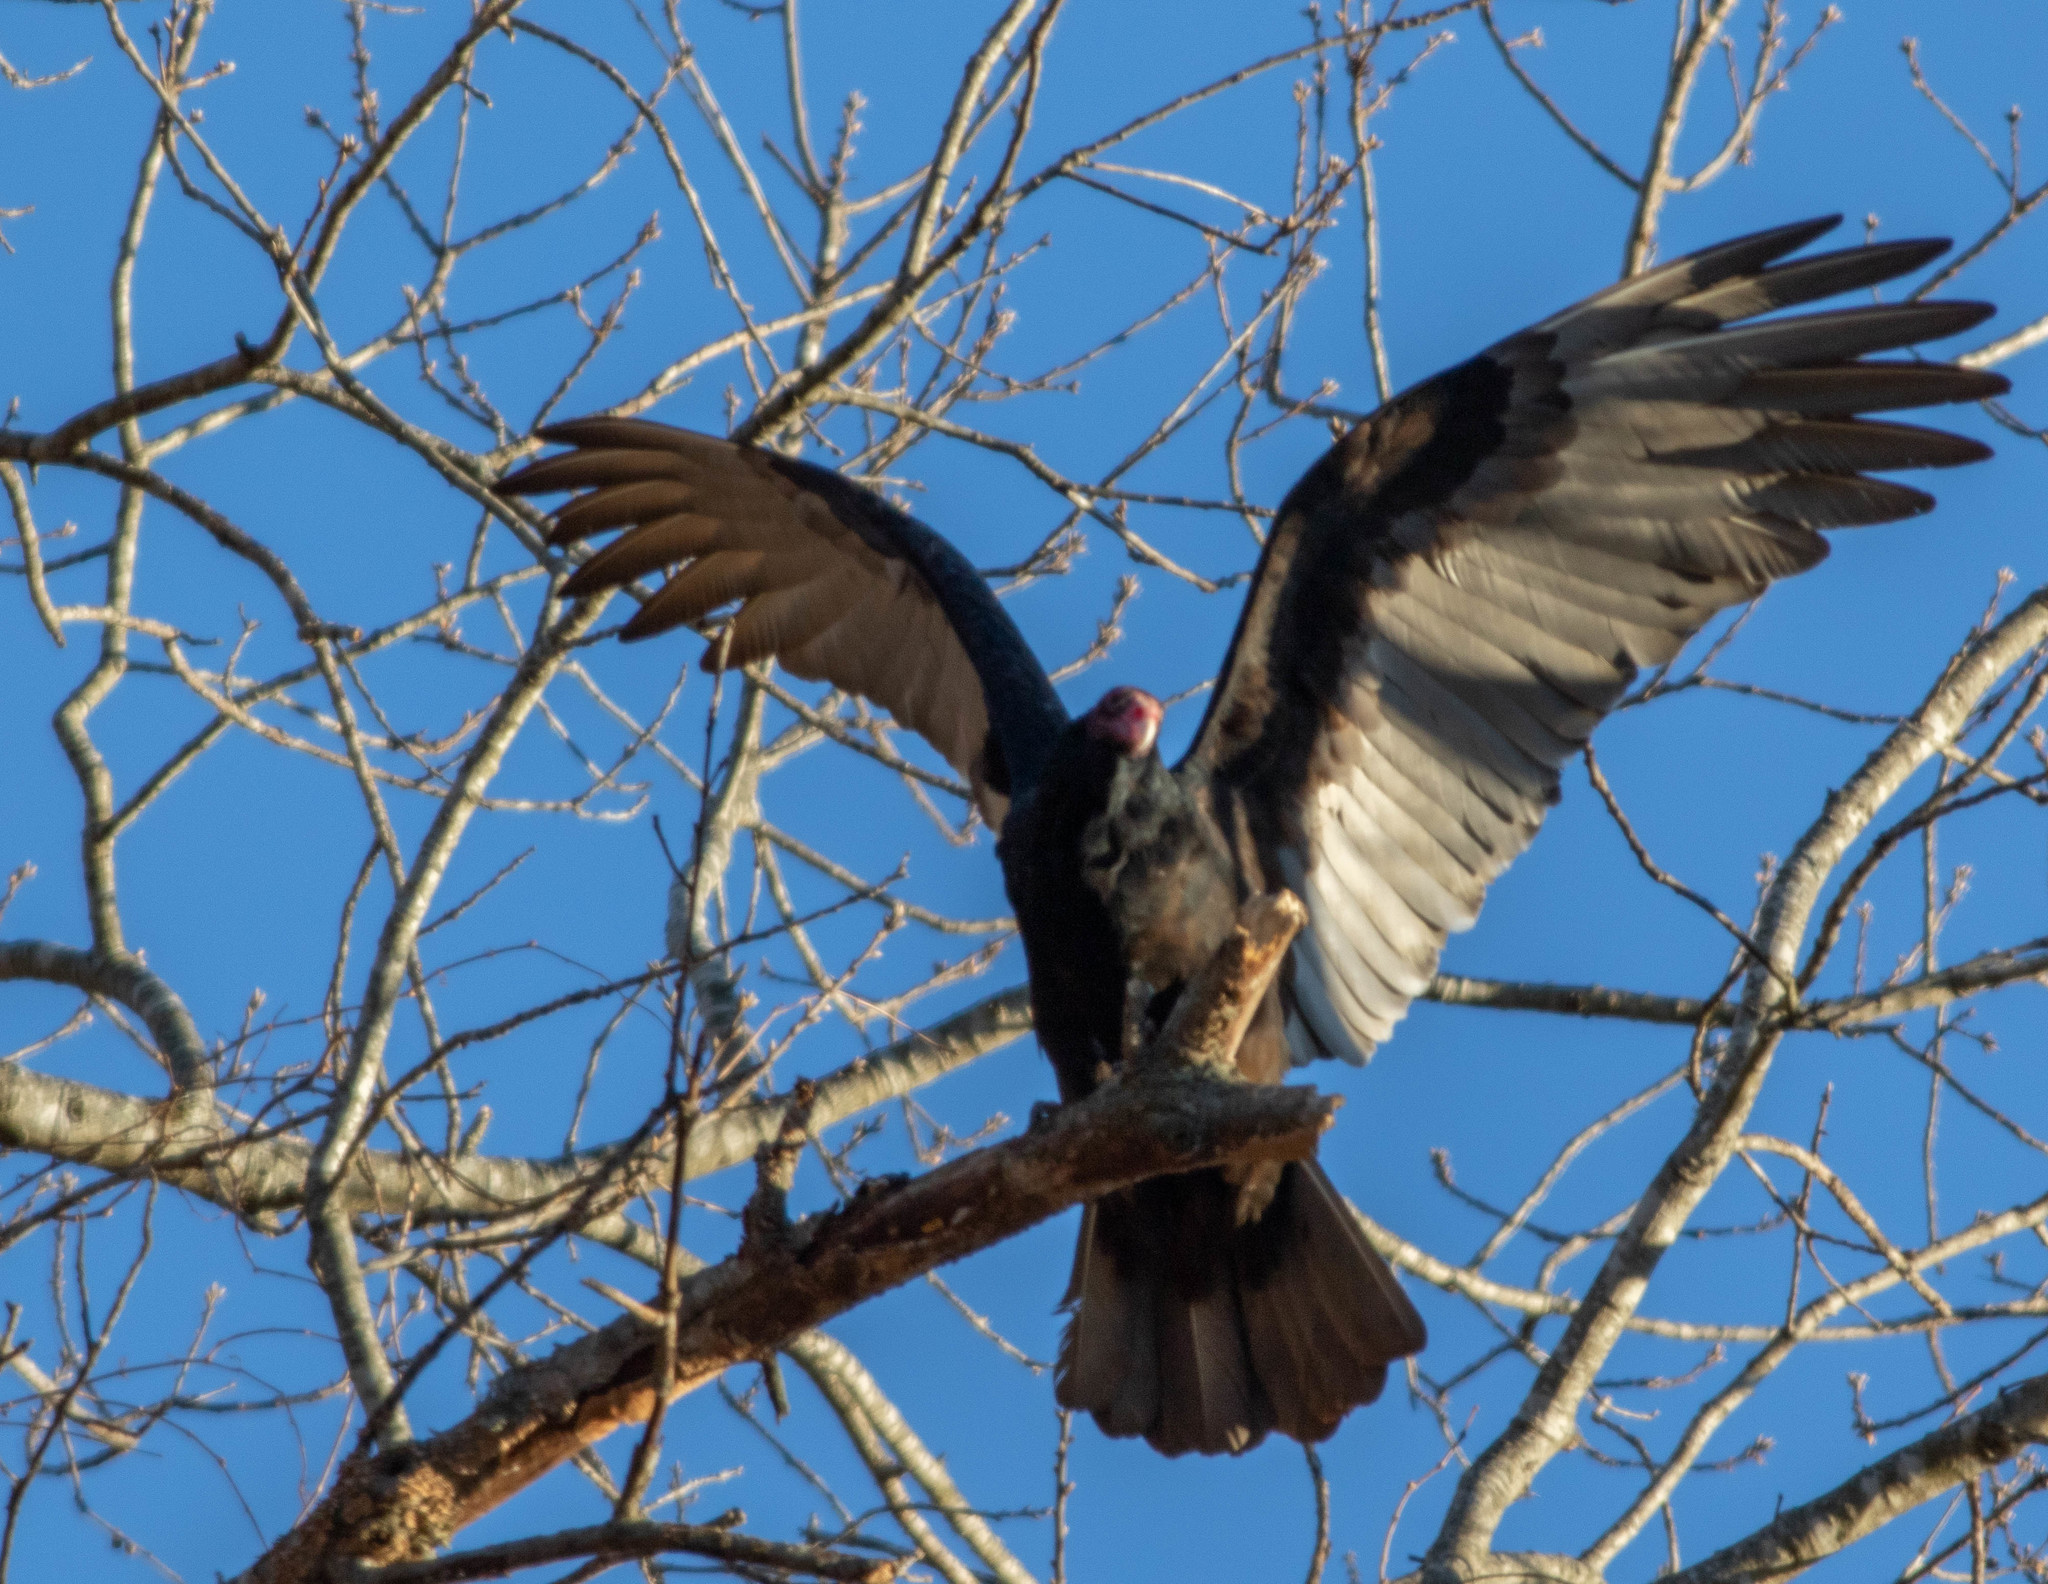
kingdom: Animalia
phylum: Chordata
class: Aves
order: Accipitriformes
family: Cathartidae
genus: Cathartes
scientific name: Cathartes aura
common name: Turkey vulture
